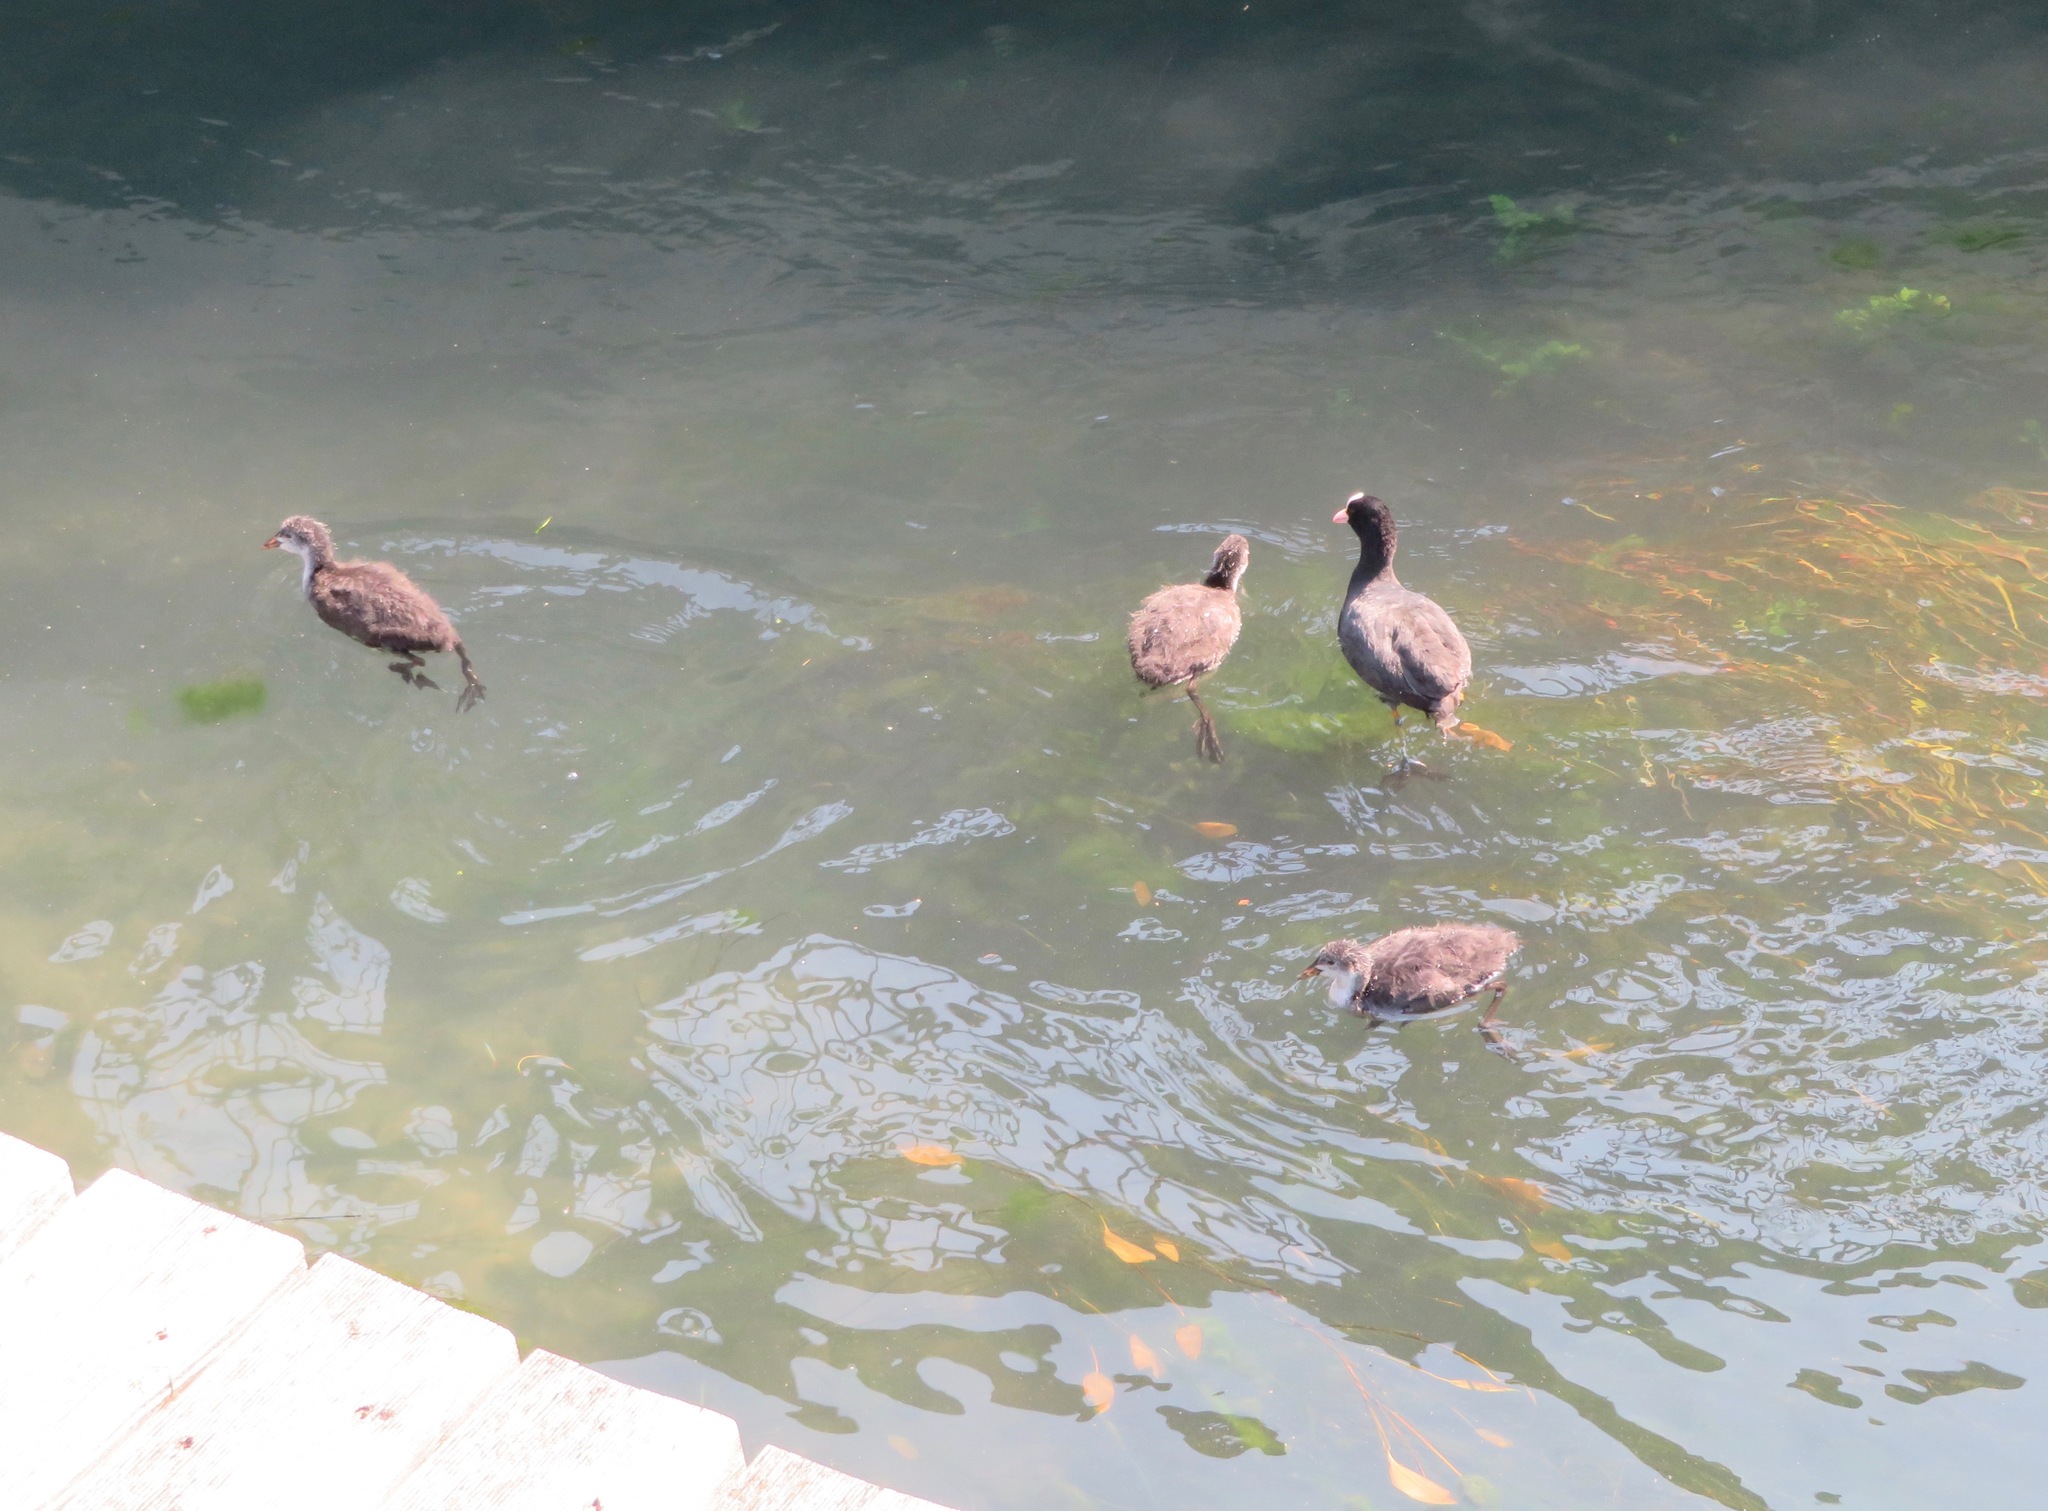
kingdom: Animalia
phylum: Chordata
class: Aves
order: Gruiformes
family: Rallidae
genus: Fulica
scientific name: Fulica atra
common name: Eurasian coot
